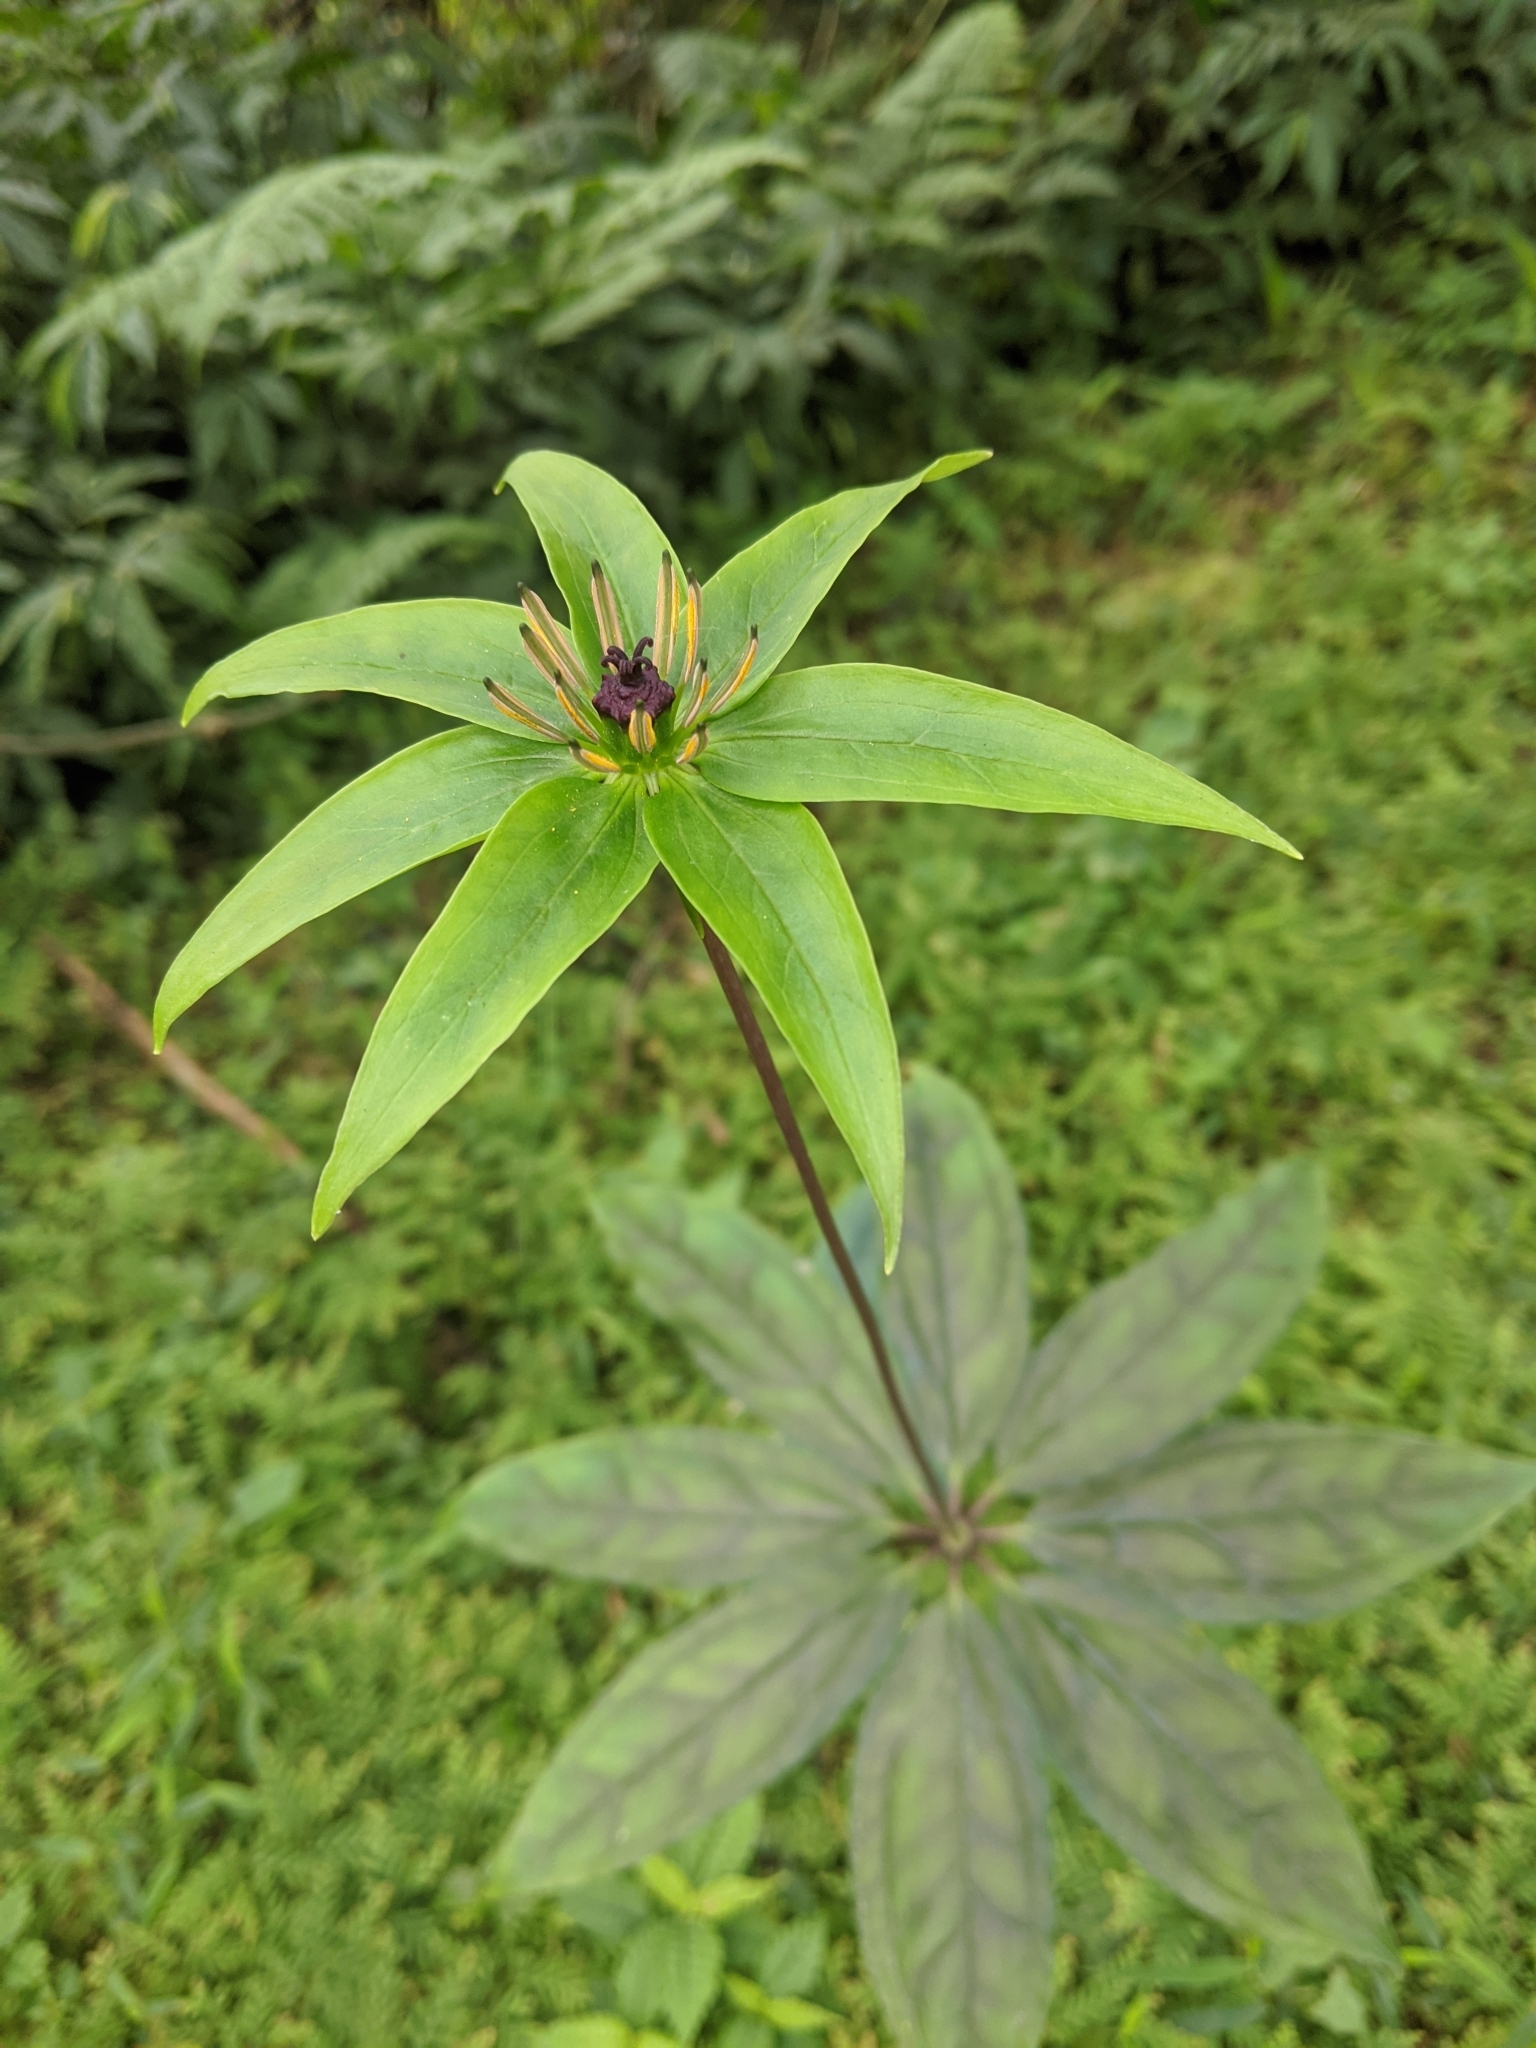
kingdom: Plantae
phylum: Tracheophyta
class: Liliopsida
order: Liliales
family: Melanthiaceae
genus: Paris
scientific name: Paris polyphylla
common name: Love apple
